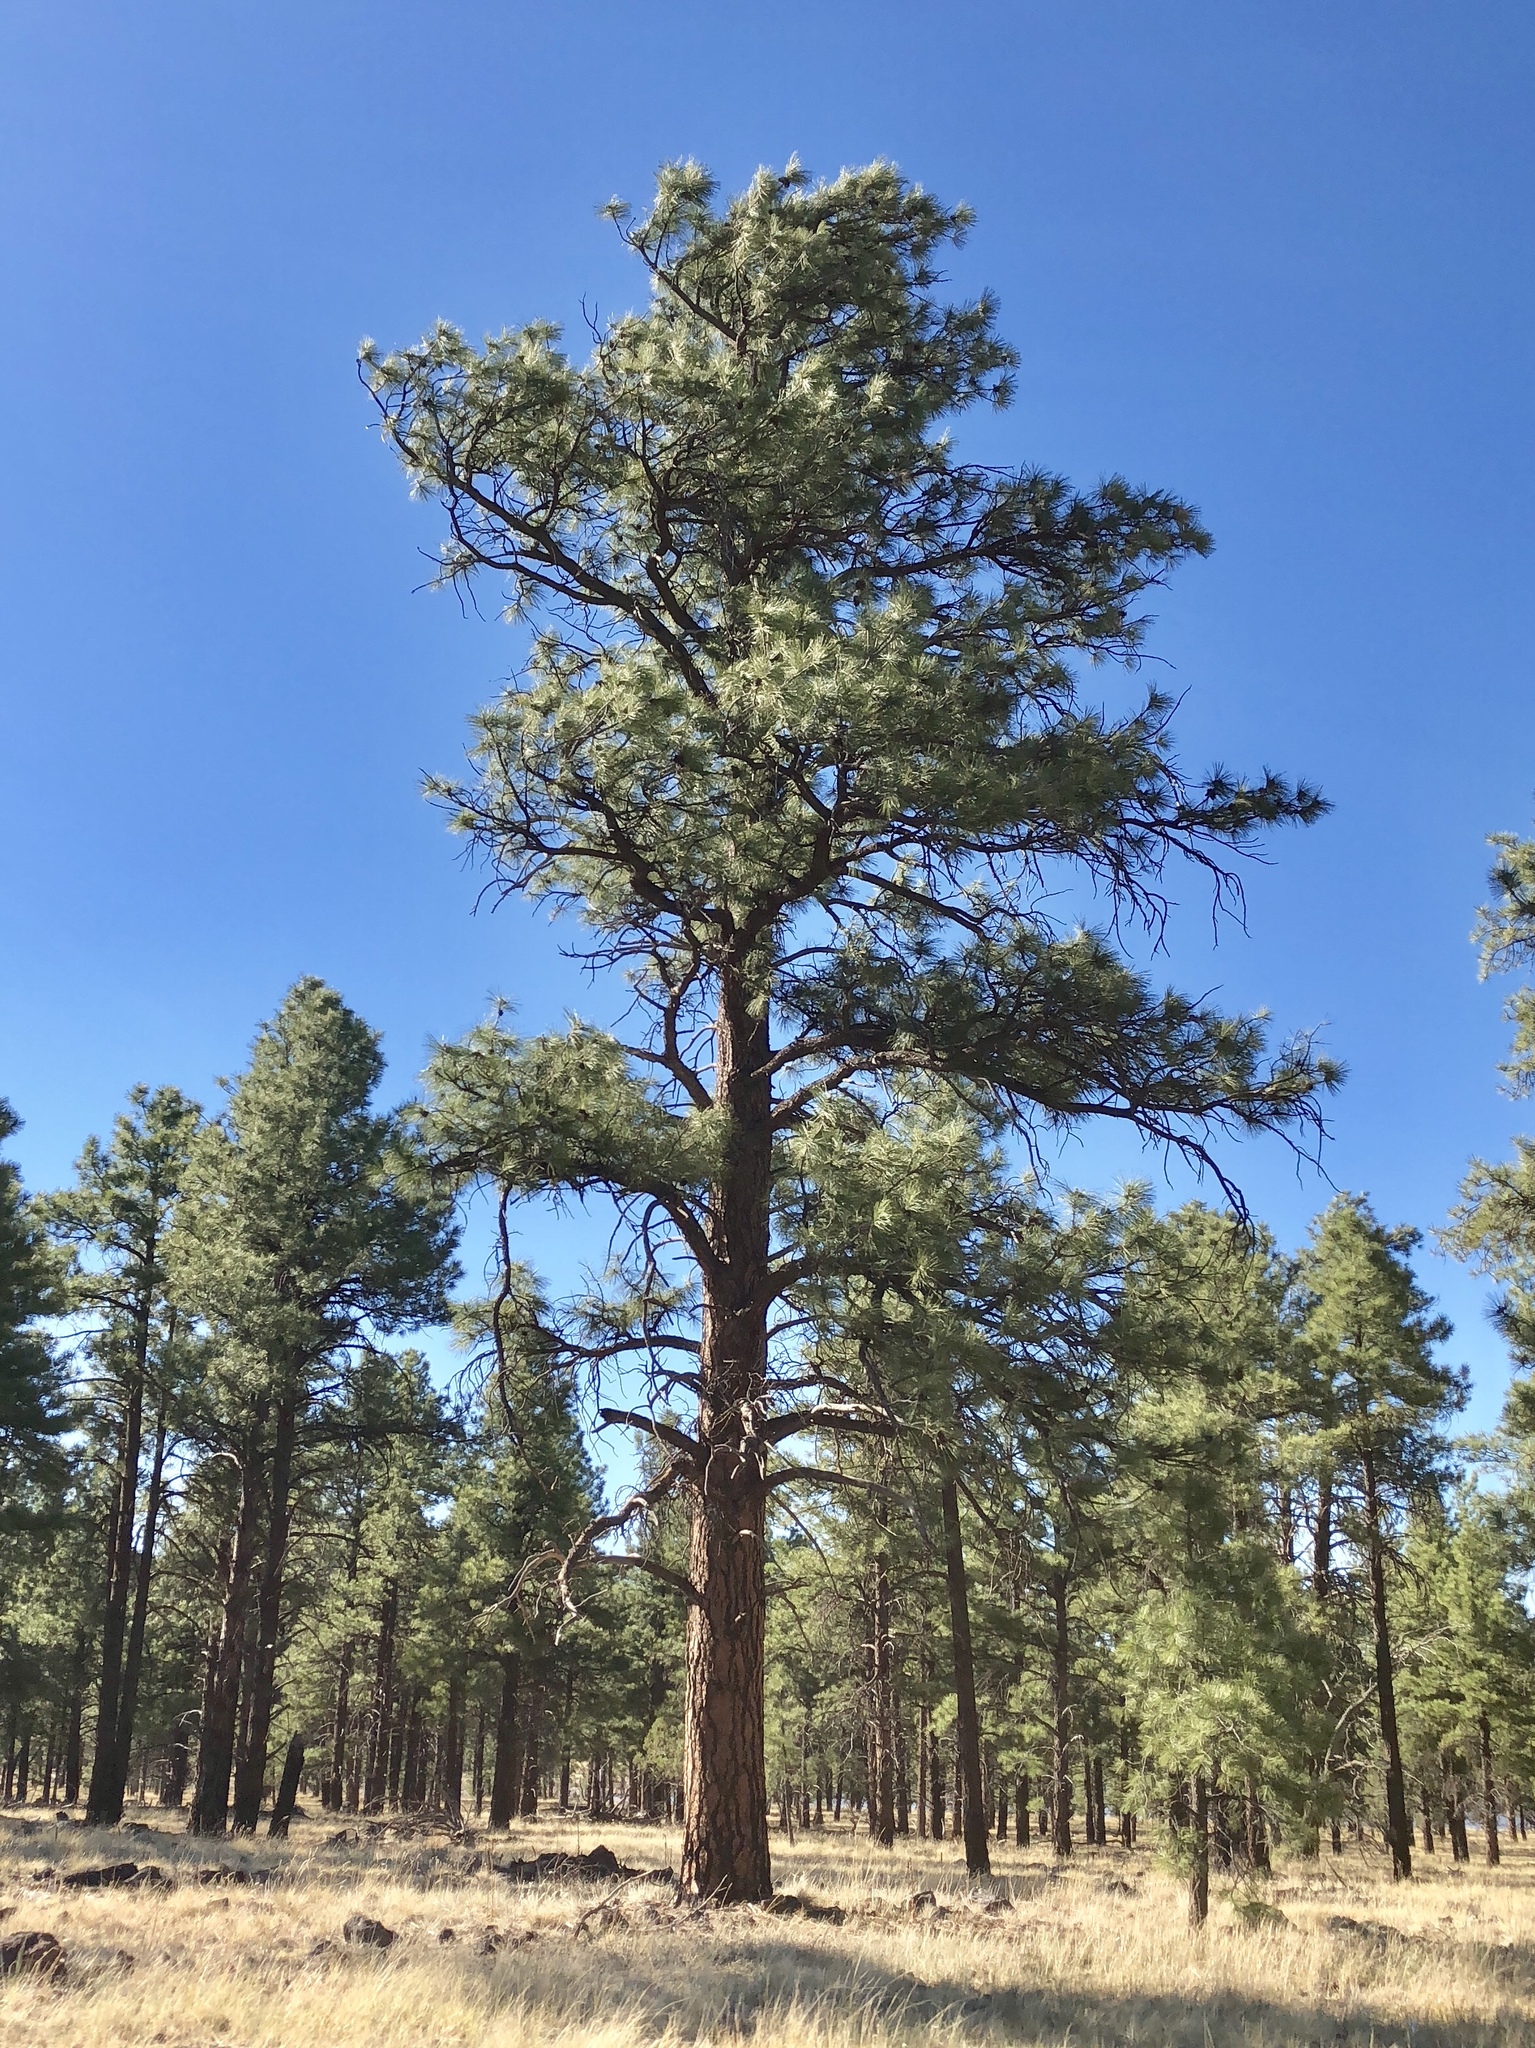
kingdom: Plantae
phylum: Tracheophyta
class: Pinopsida
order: Pinales
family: Pinaceae
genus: Pinus
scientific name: Pinus ponderosa
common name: Western yellow-pine
